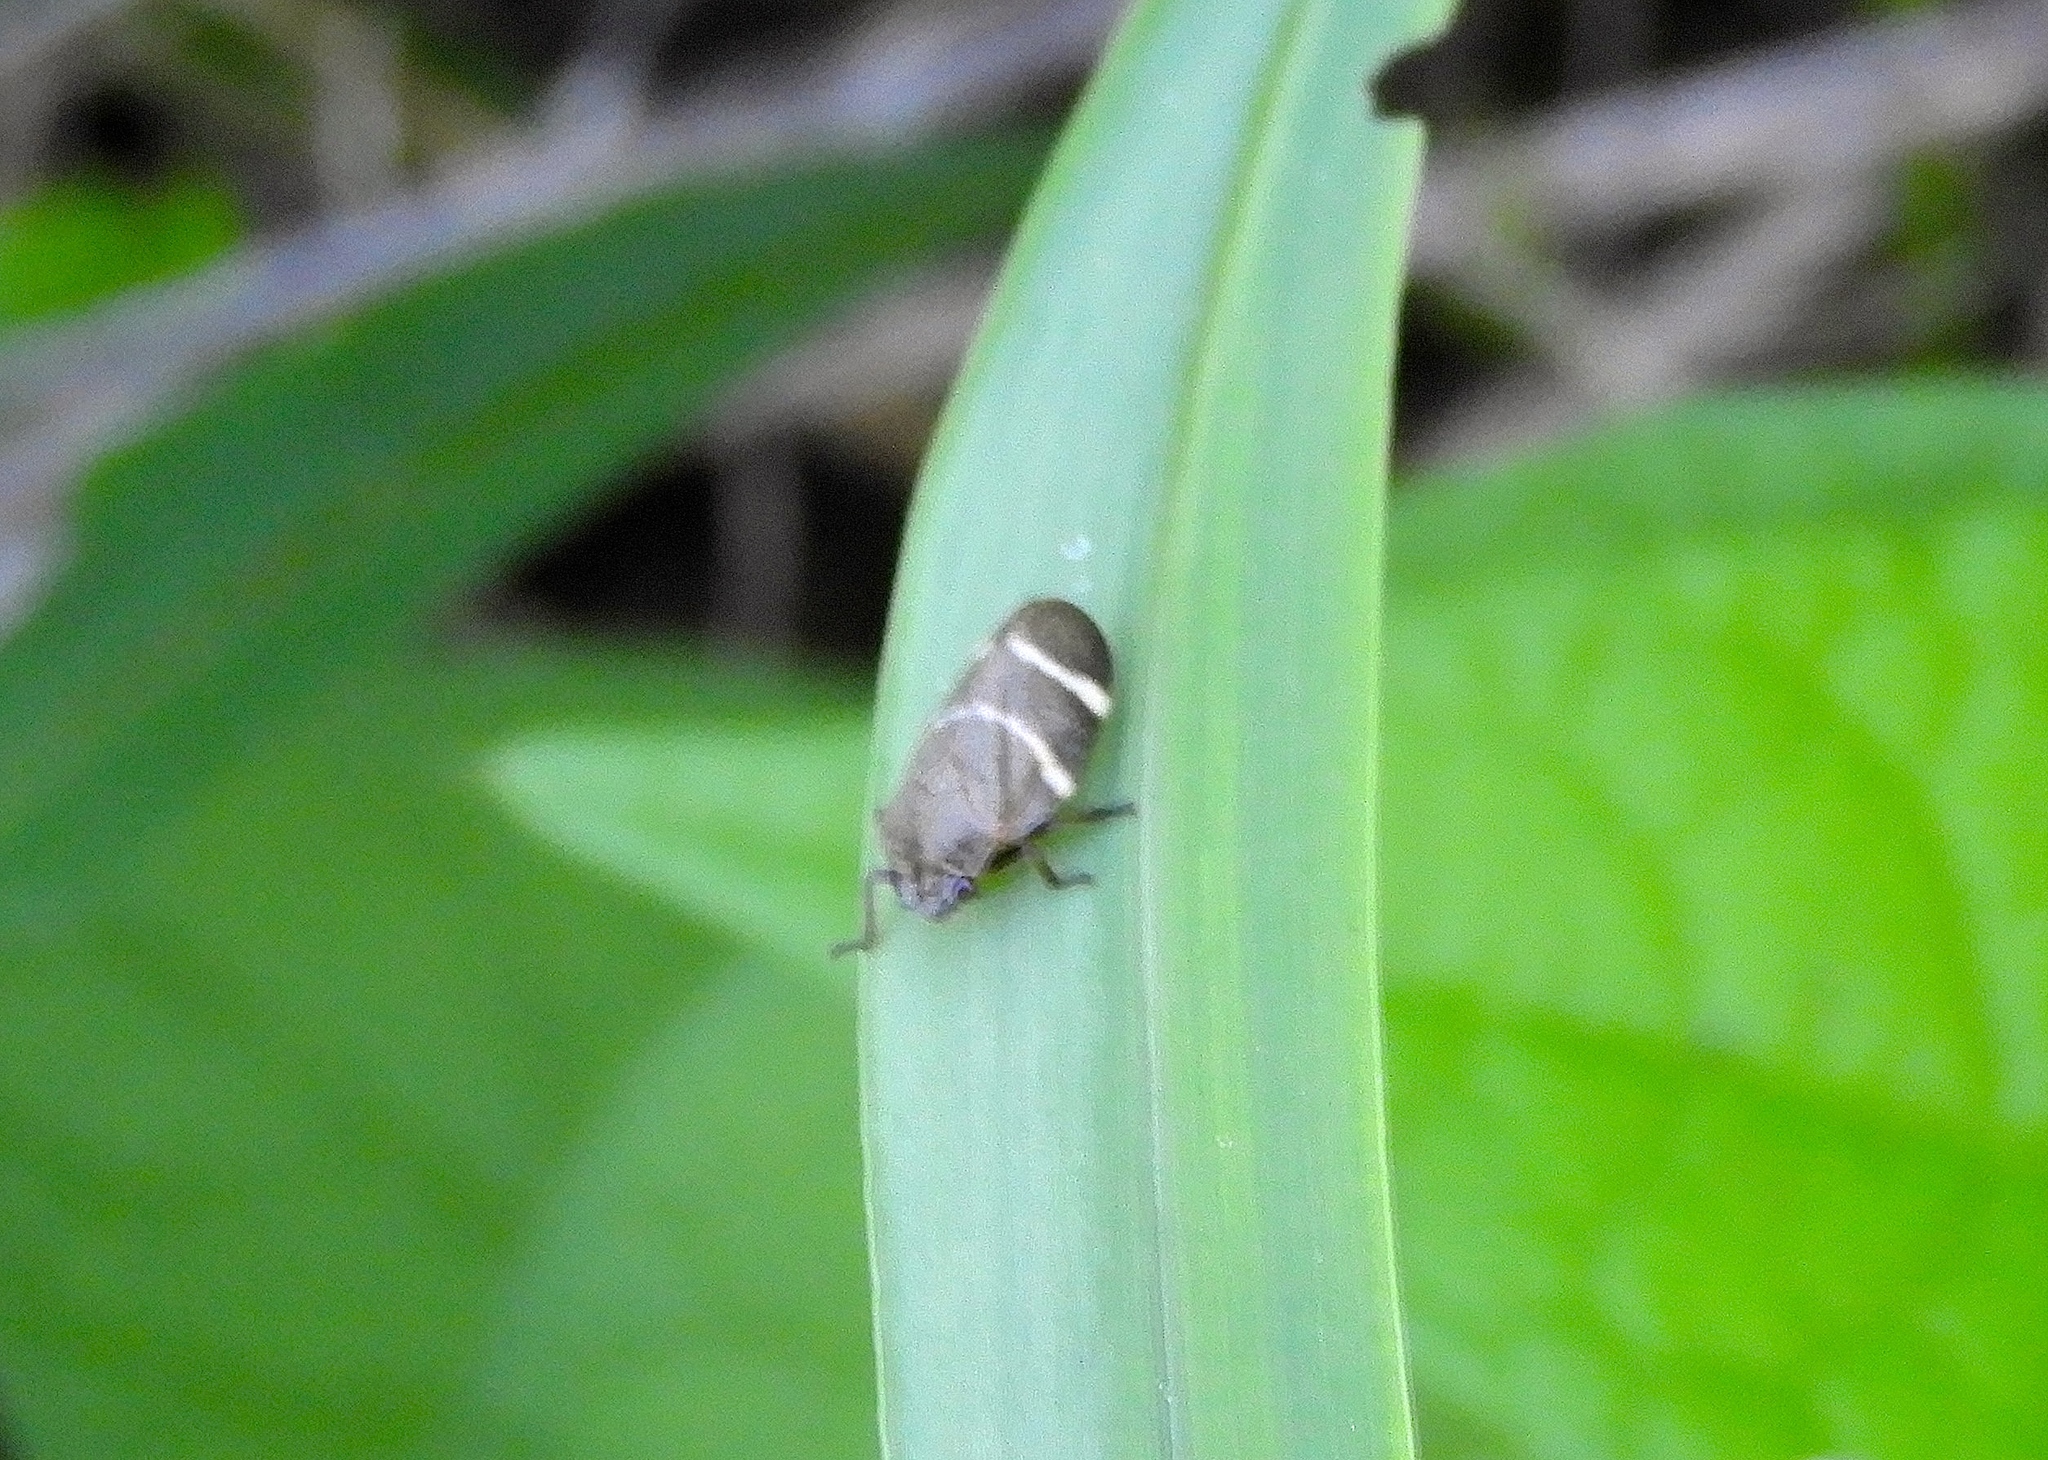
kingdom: Animalia
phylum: Arthropoda
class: Insecta
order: Hemiptera
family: Cercopidae
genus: Aeneolamia
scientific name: Aeneolamia albofasciata
